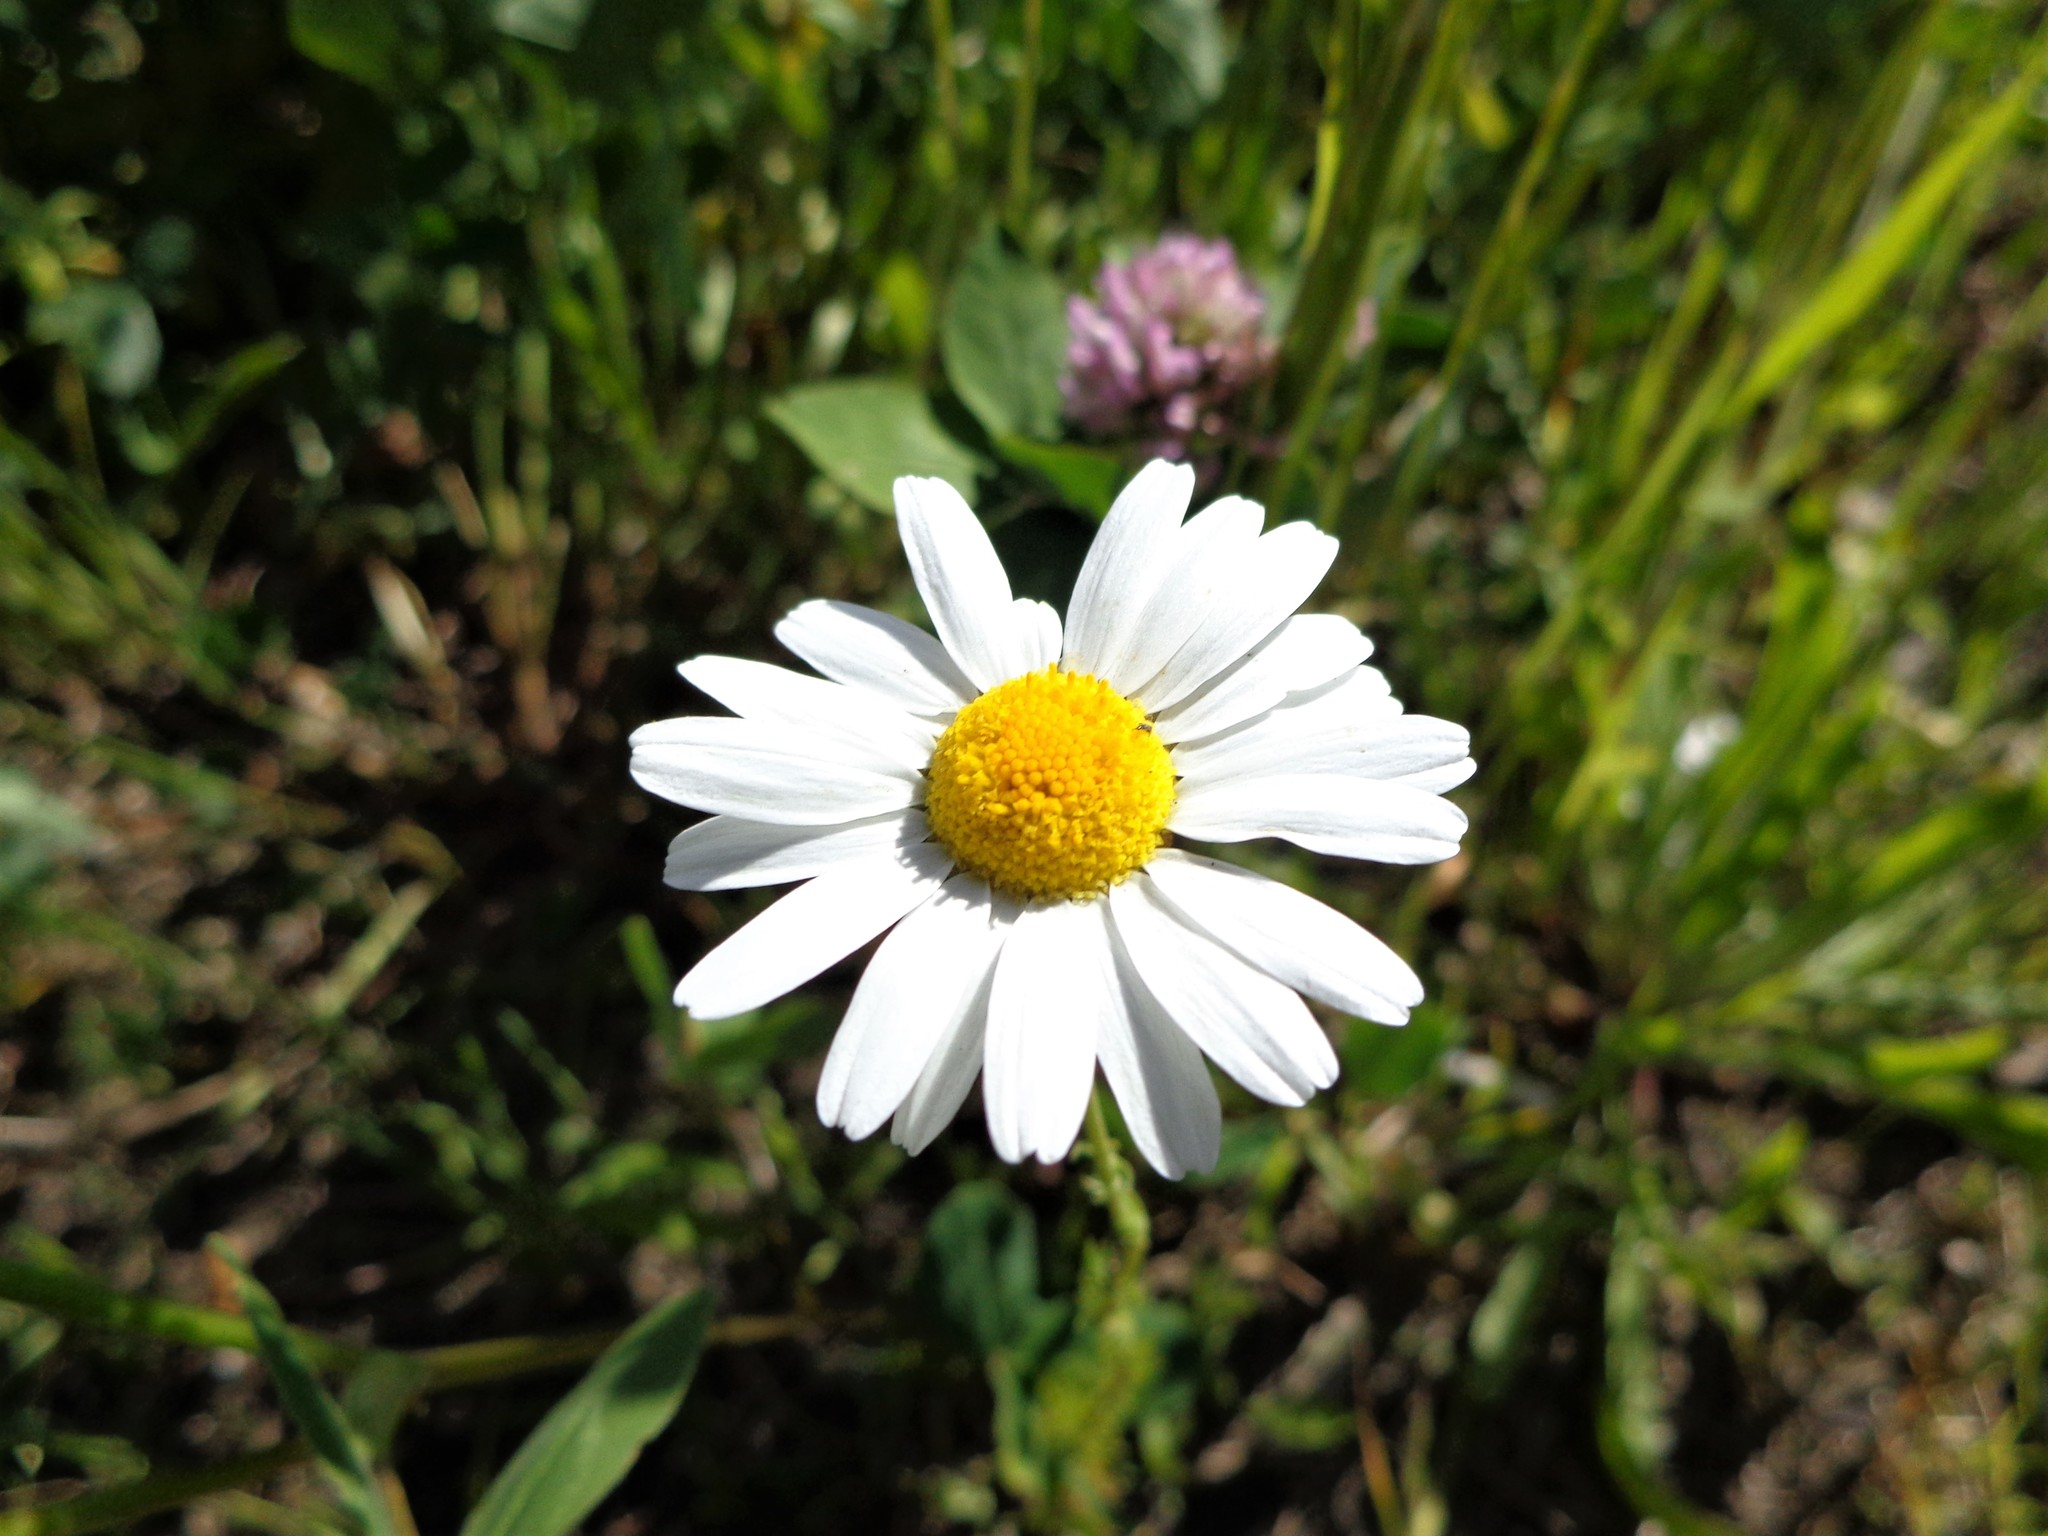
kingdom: Plantae
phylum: Tracheophyta
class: Magnoliopsida
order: Asterales
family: Asteraceae
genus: Tripleurospermum
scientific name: Tripleurospermum inodorum
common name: Scentless mayweed
